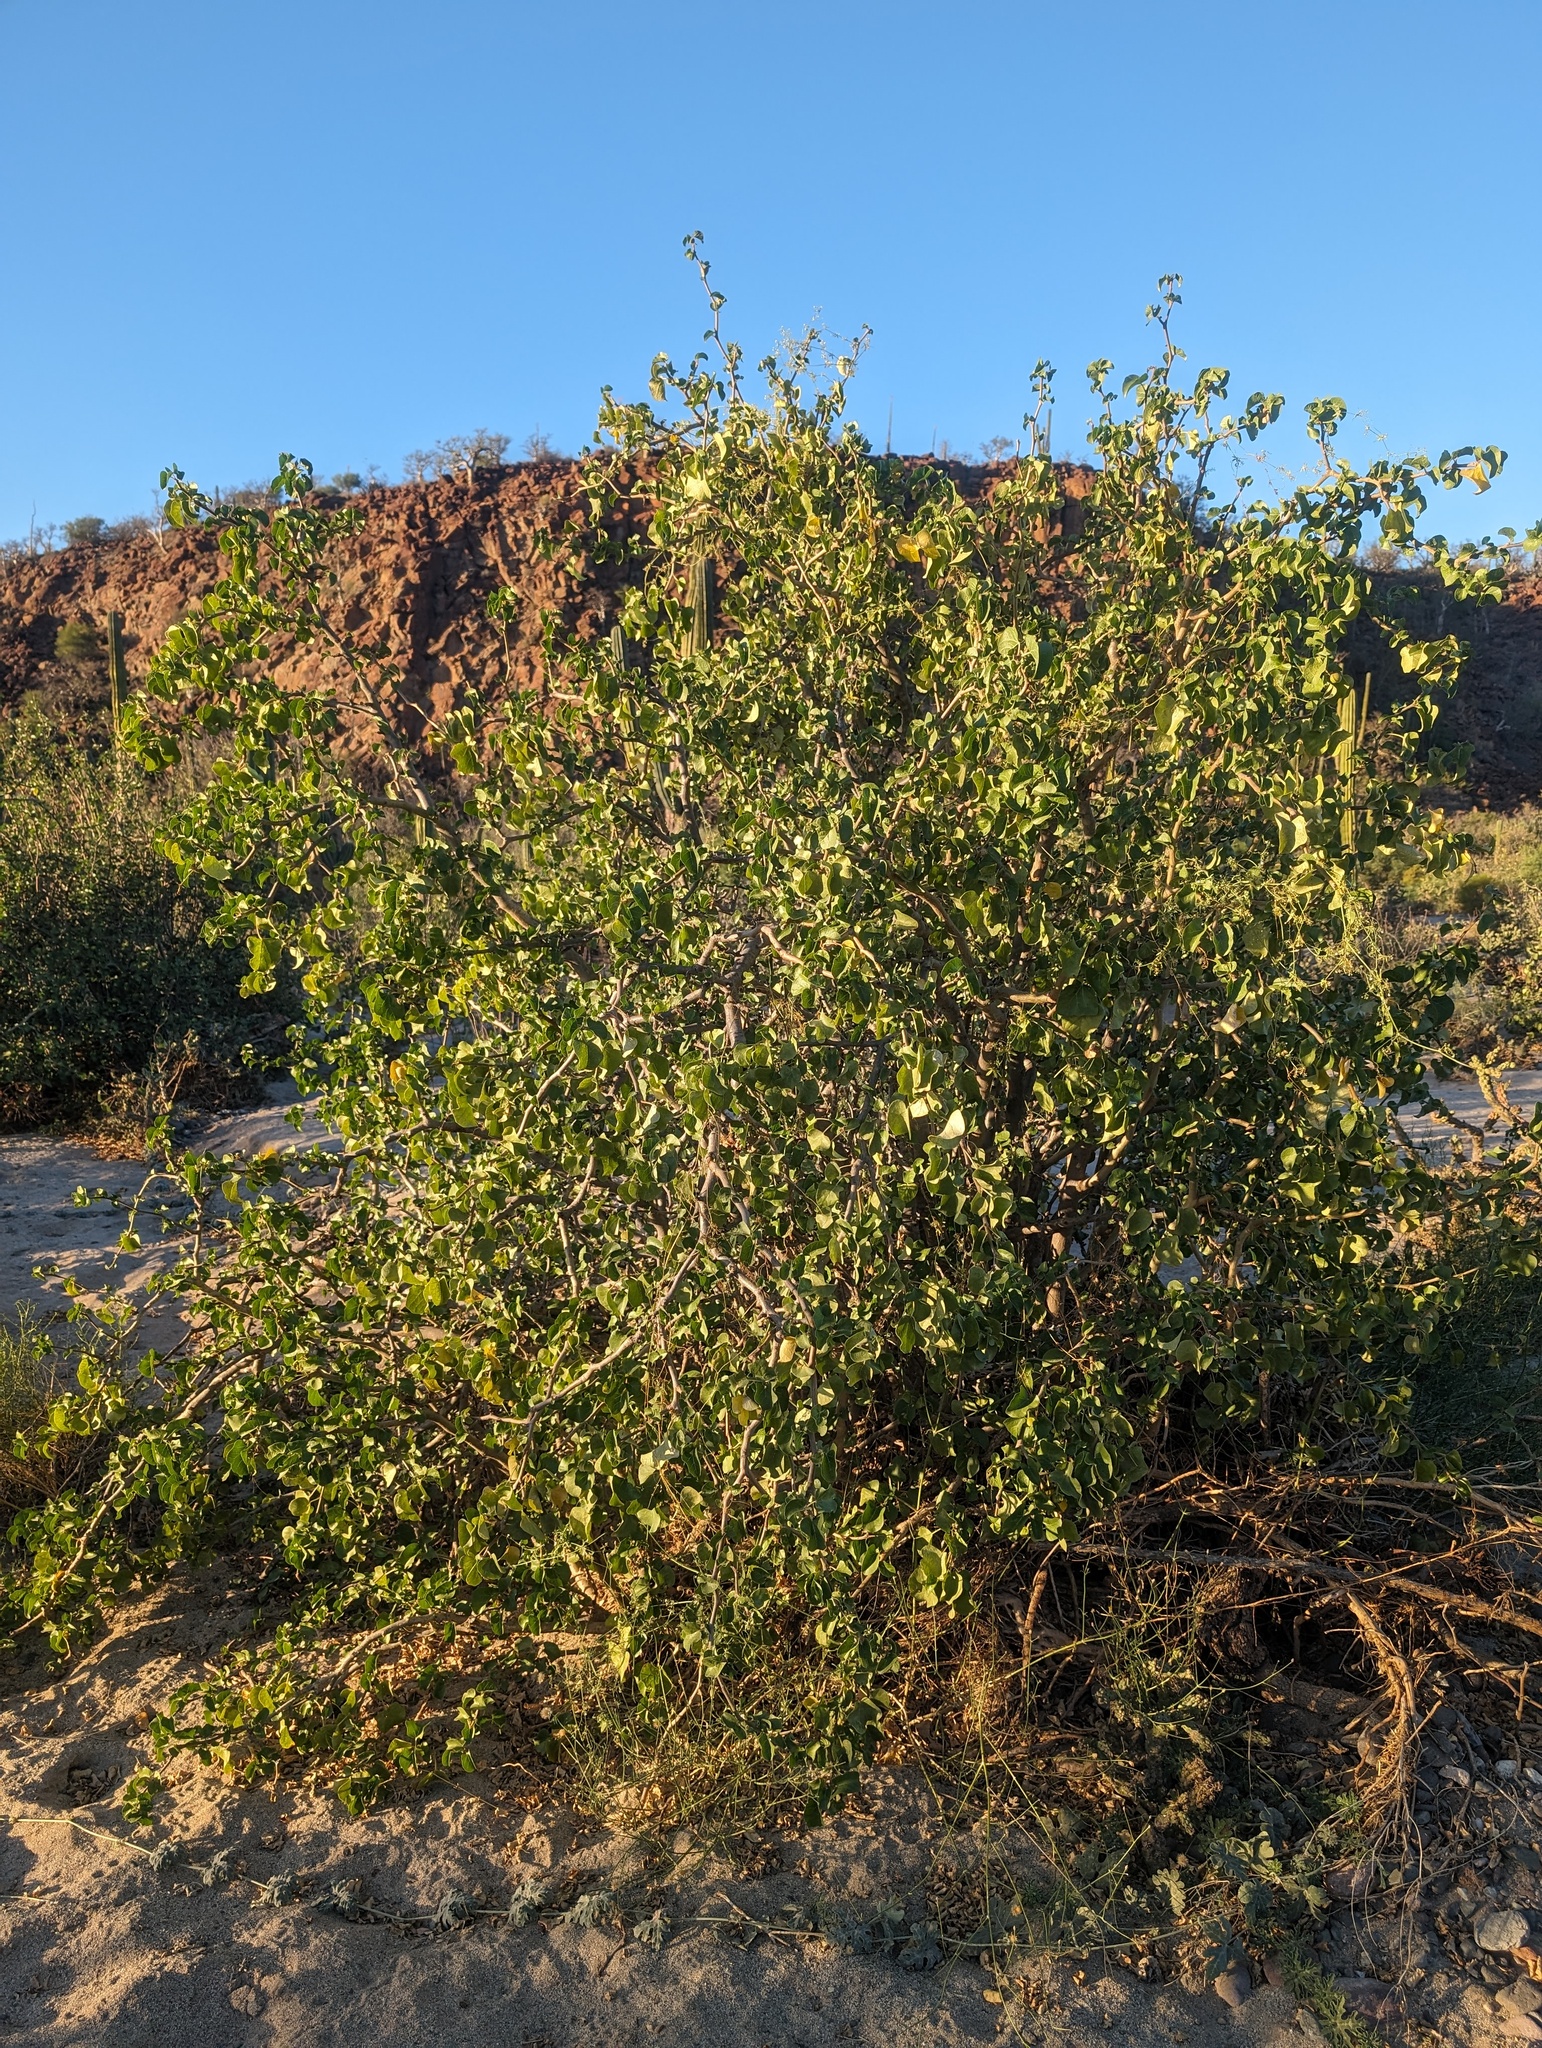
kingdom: Plantae
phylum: Tracheophyta
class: Magnoliopsida
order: Malpighiales
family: Euphorbiaceae
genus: Jatropha
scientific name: Jatropha cinerea
